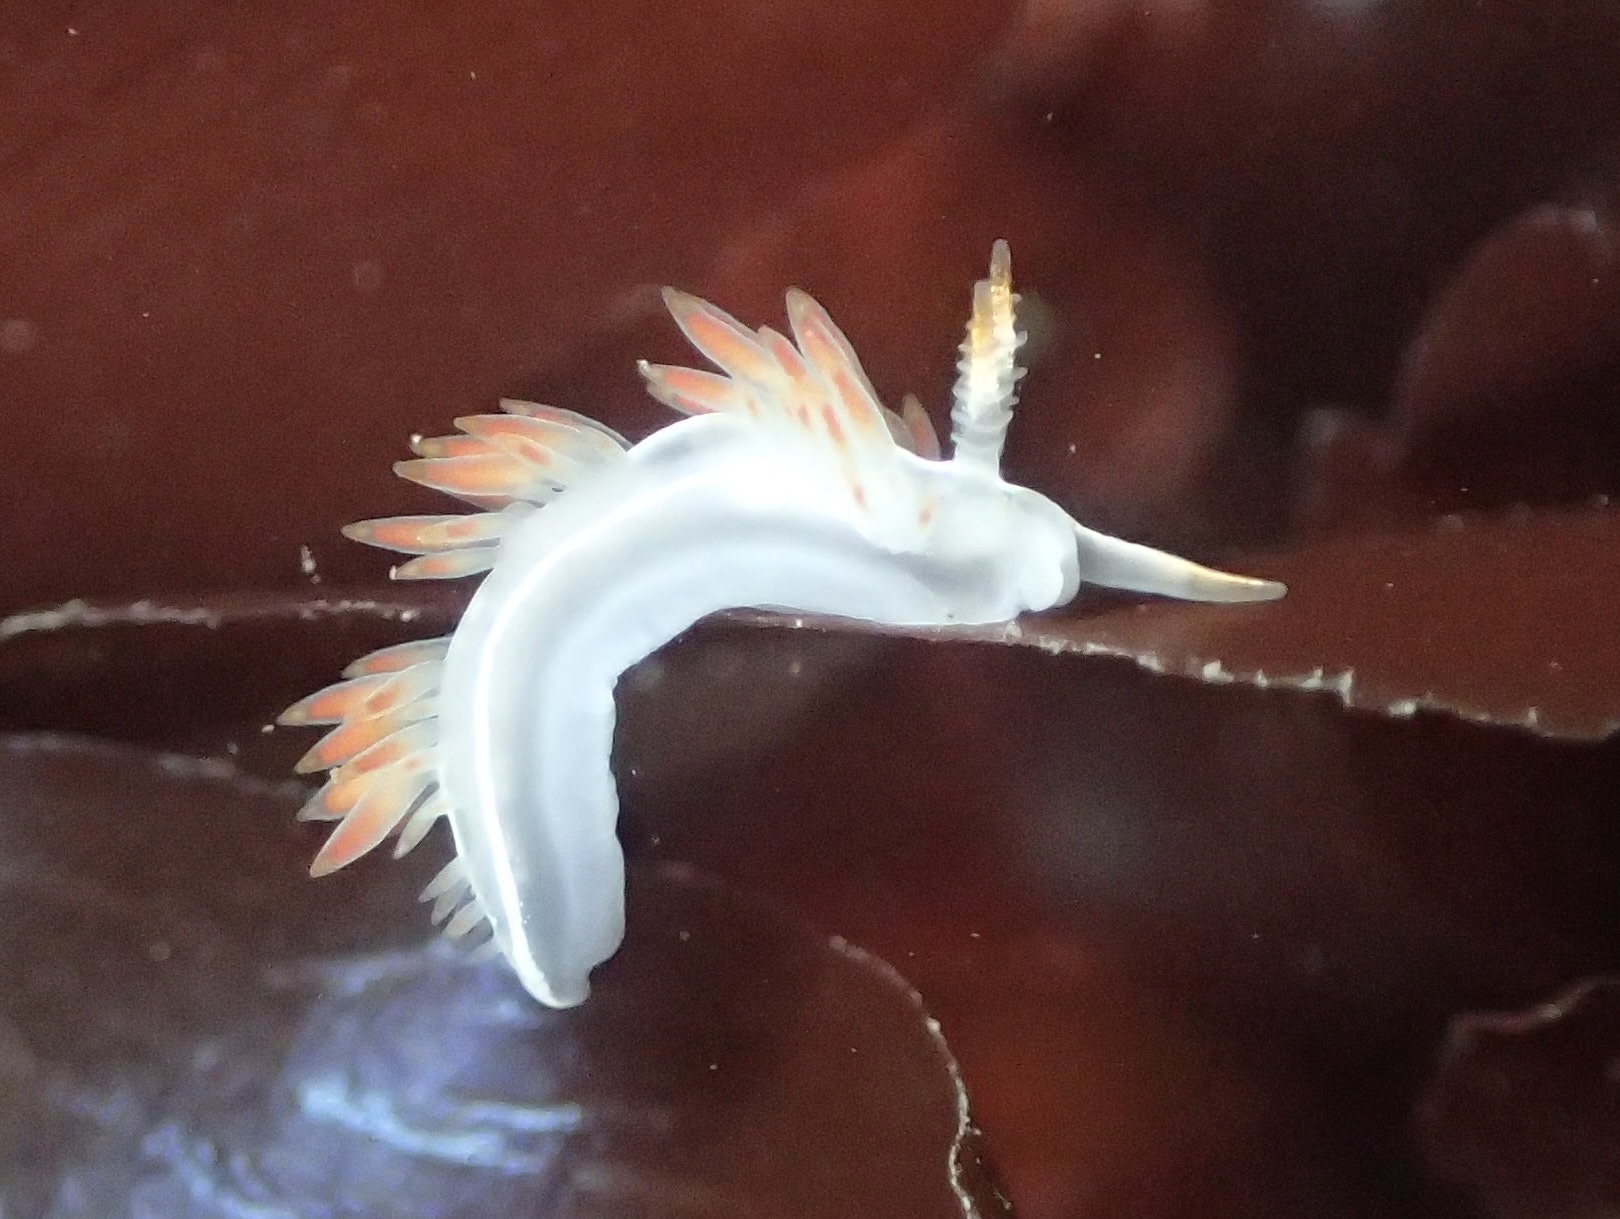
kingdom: Animalia
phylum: Mollusca
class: Gastropoda
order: Nudibranchia
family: Coryphellidae
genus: Coryphella
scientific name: Coryphella trilineata
